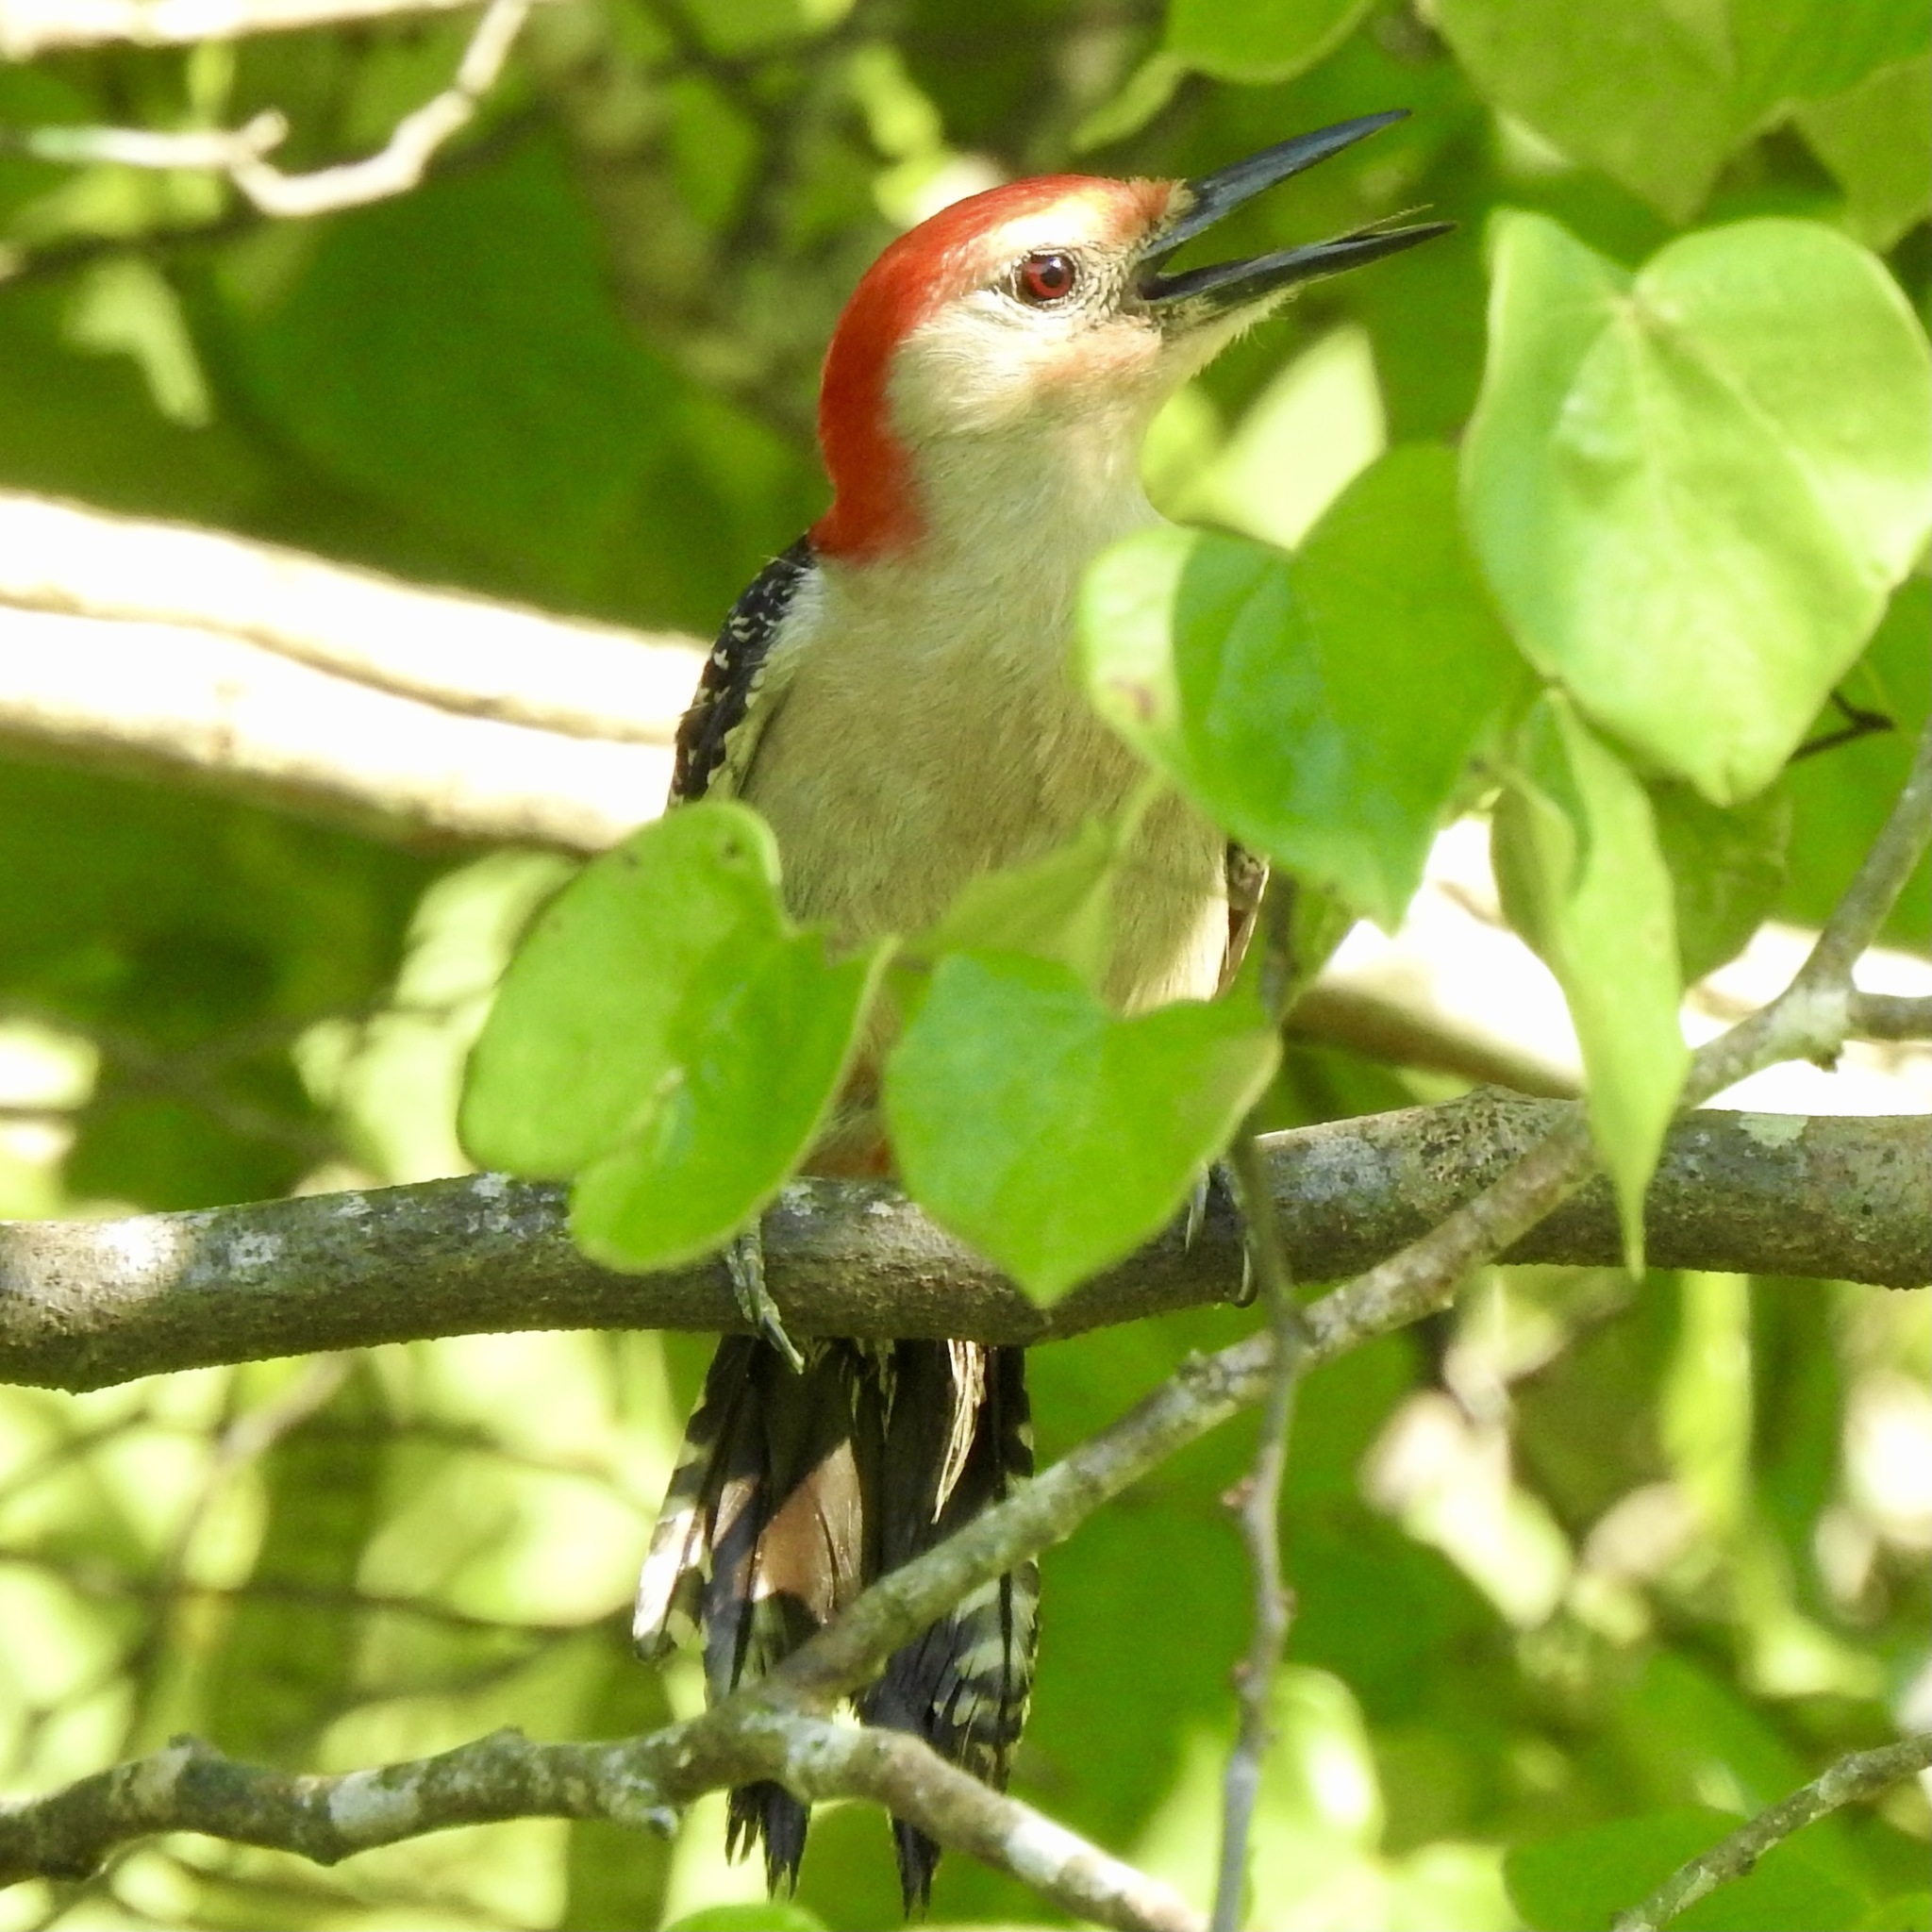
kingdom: Animalia
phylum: Chordata
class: Aves
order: Piciformes
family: Picidae
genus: Melanerpes
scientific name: Melanerpes carolinus
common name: Red-bellied woodpecker
